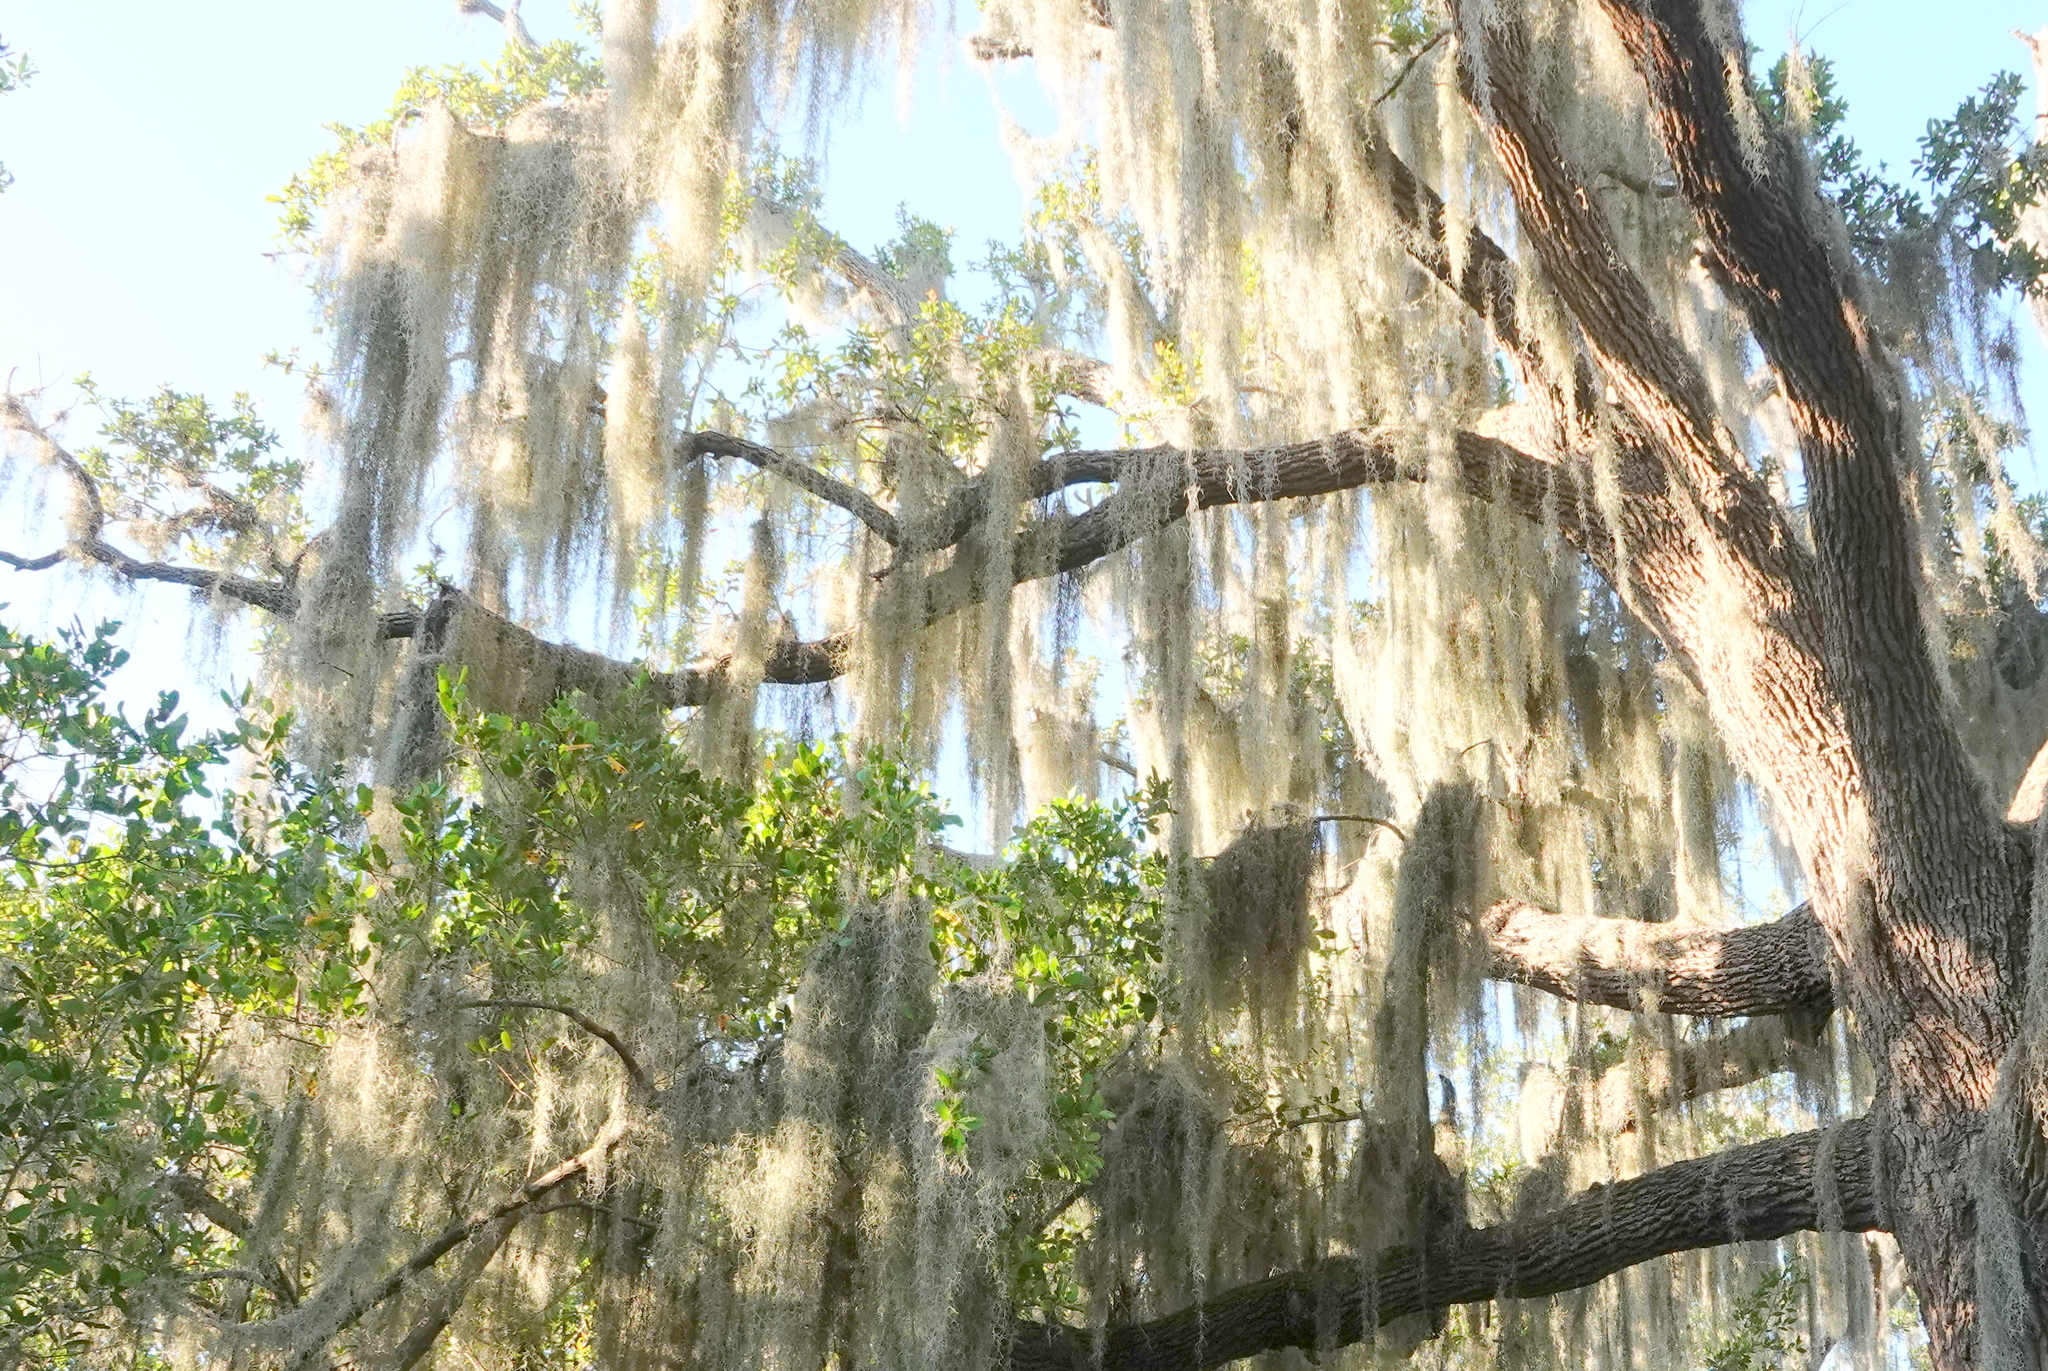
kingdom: Plantae
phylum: Tracheophyta
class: Liliopsida
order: Poales
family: Bromeliaceae
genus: Tillandsia
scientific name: Tillandsia usneoides
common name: Spanish moss
